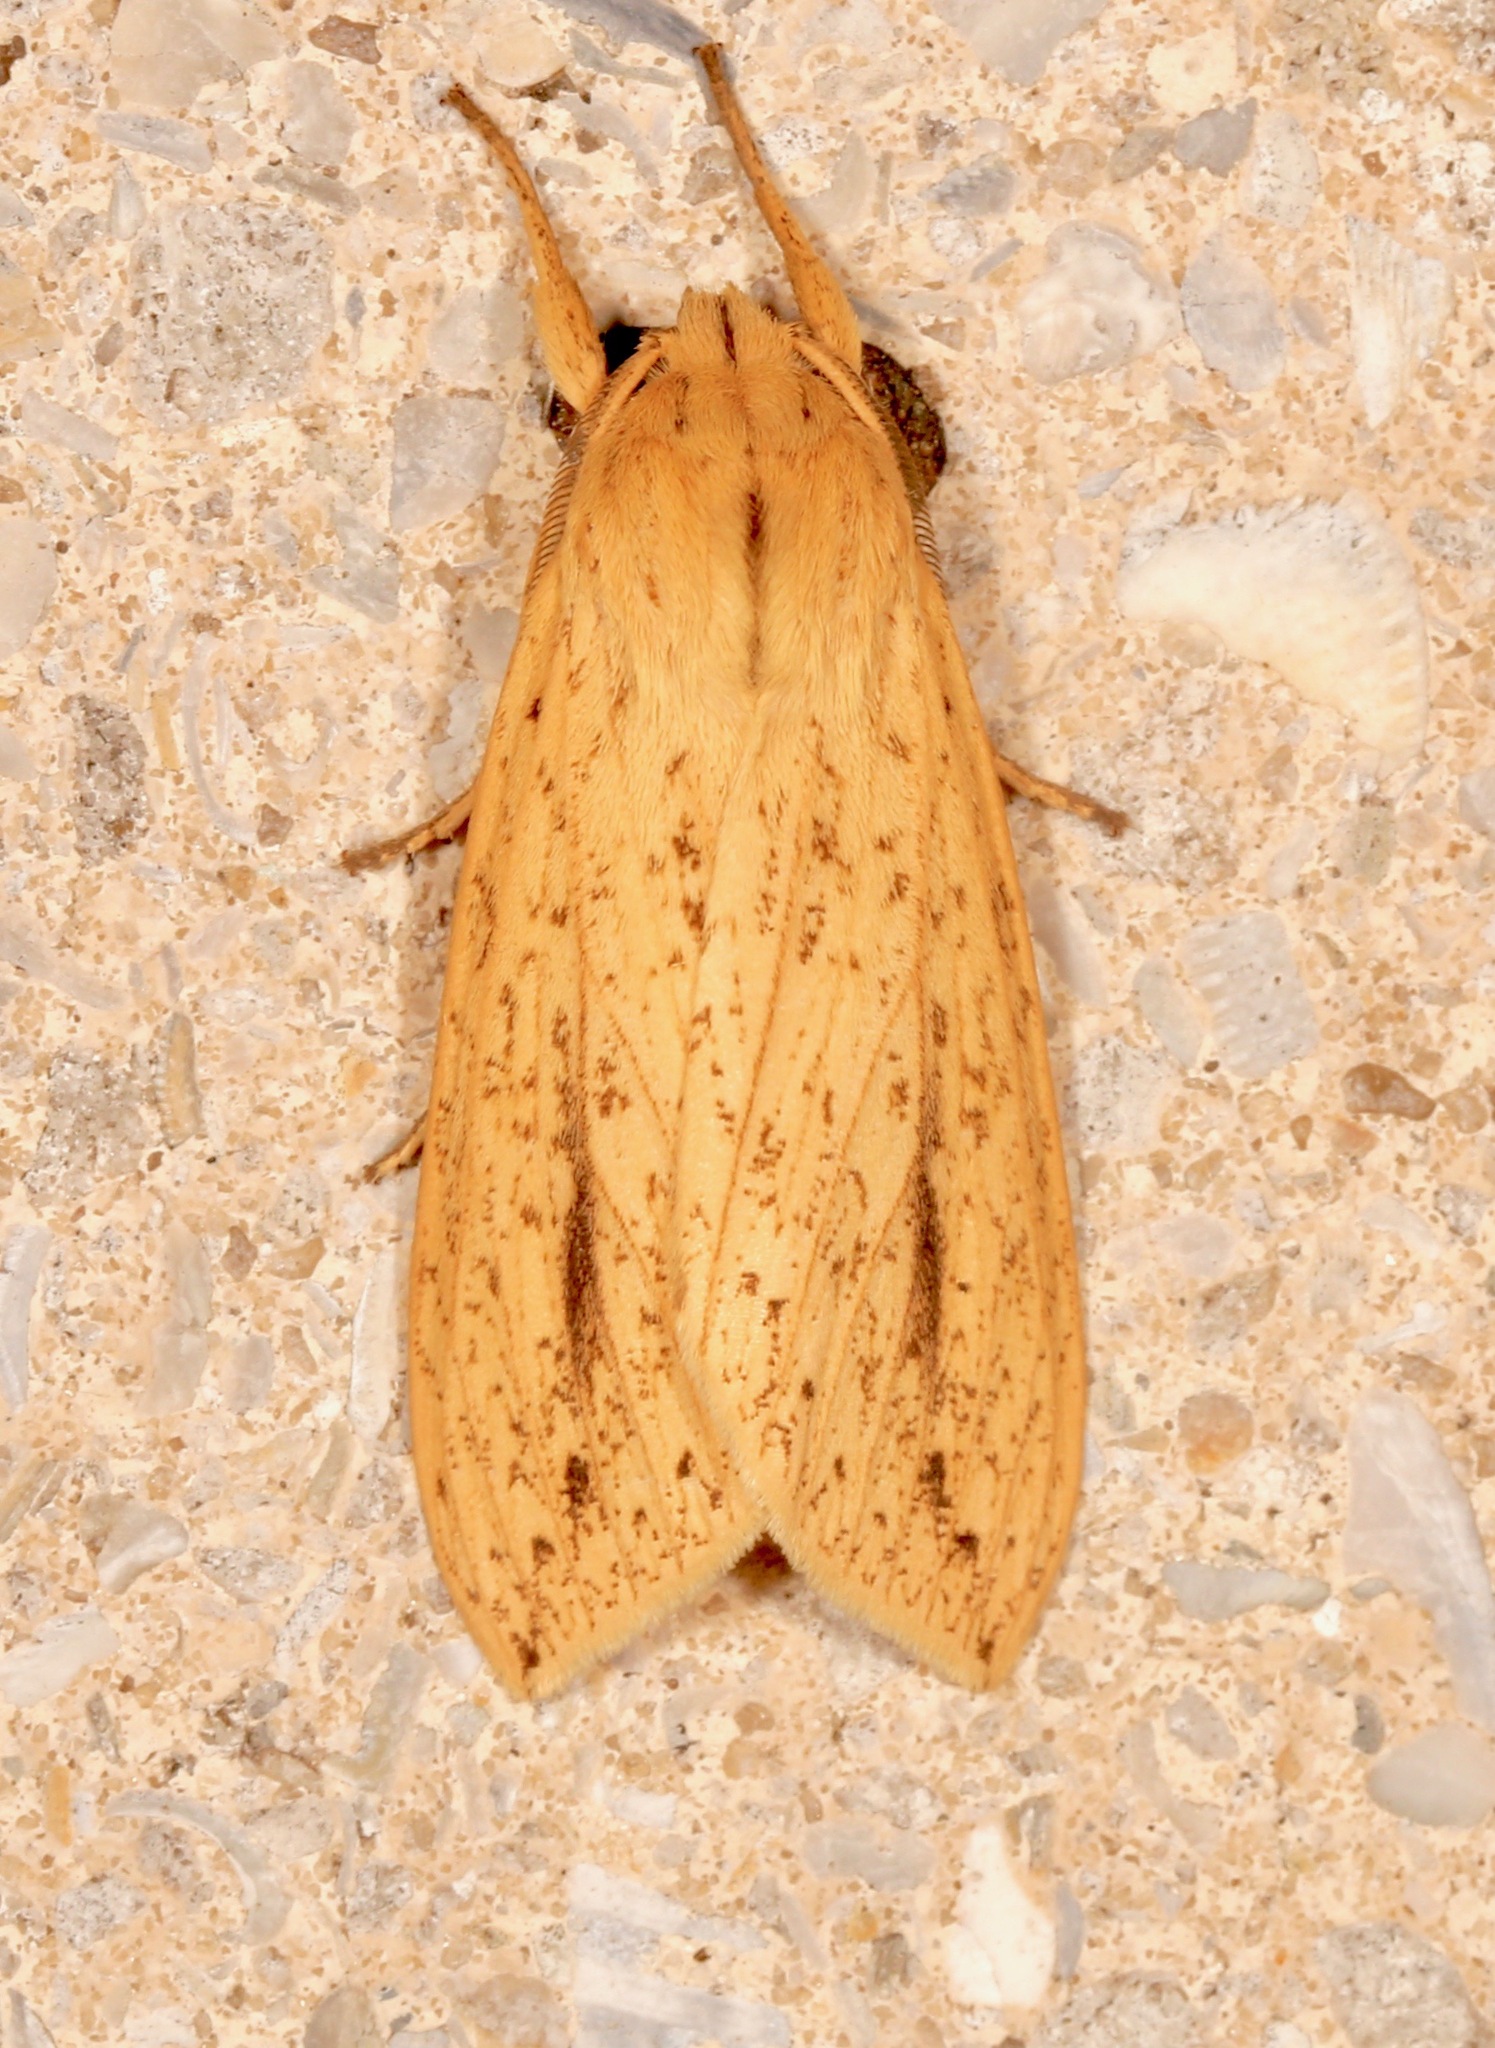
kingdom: Animalia
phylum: Arthropoda
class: Insecta
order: Lepidoptera
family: Erebidae
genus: Leucanopsis
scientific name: Leucanopsis longa
